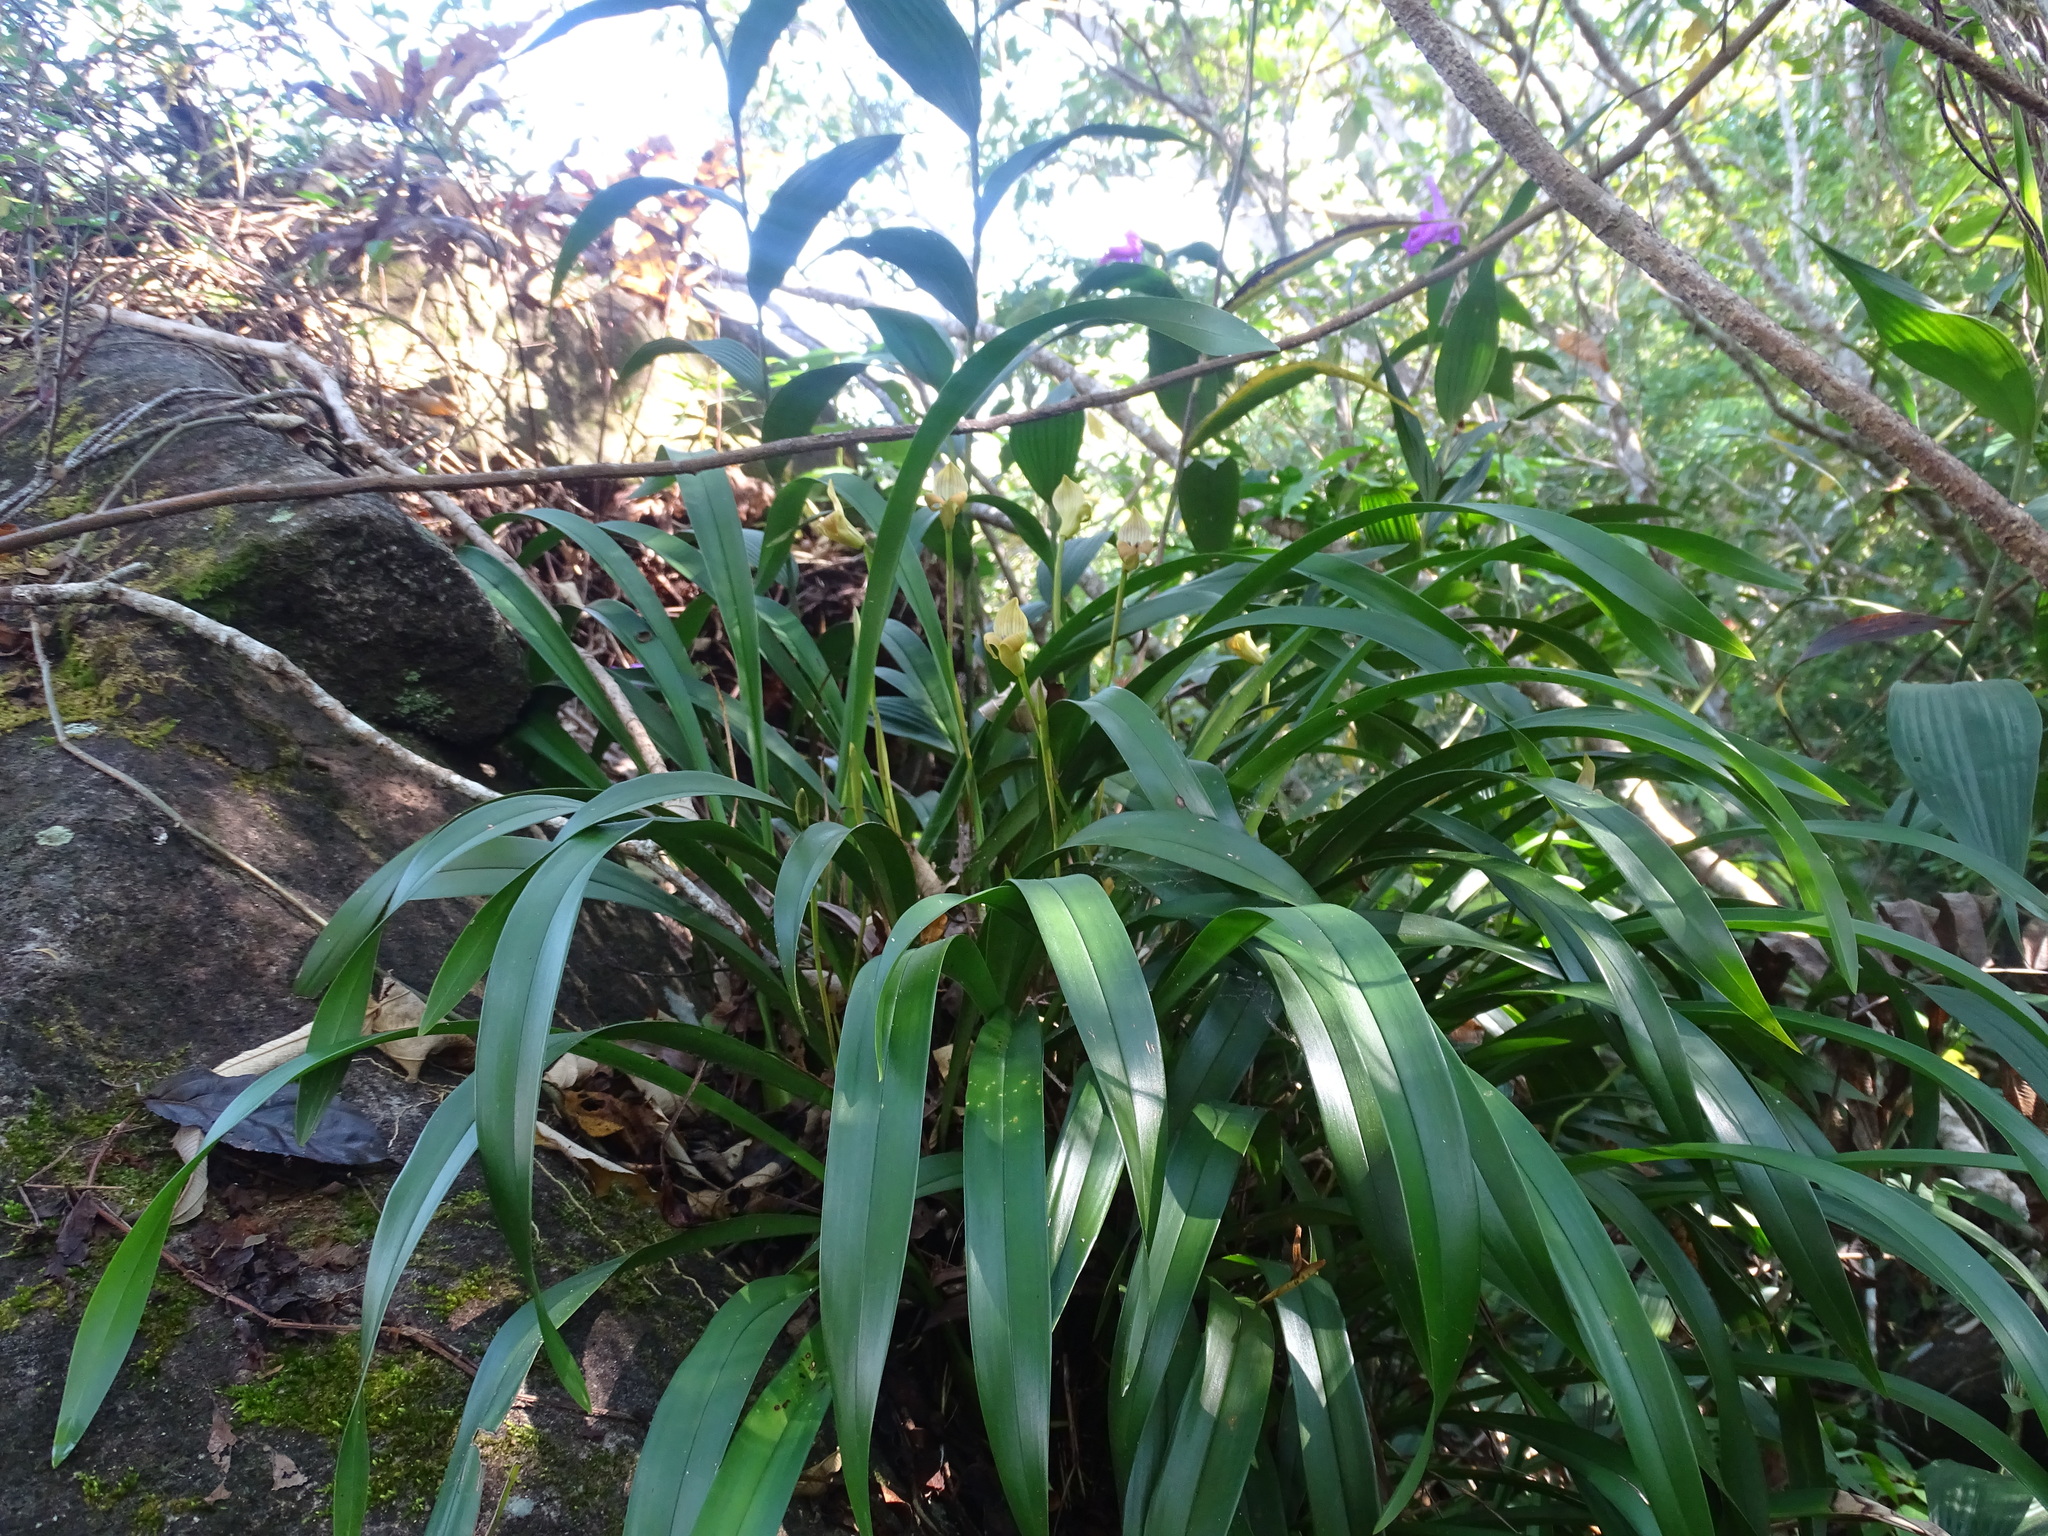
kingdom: Plantae
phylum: Tracheophyta
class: Liliopsida
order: Asparagales
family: Orchidaceae
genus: Maxillaria
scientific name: Maxillaria egertoniana
